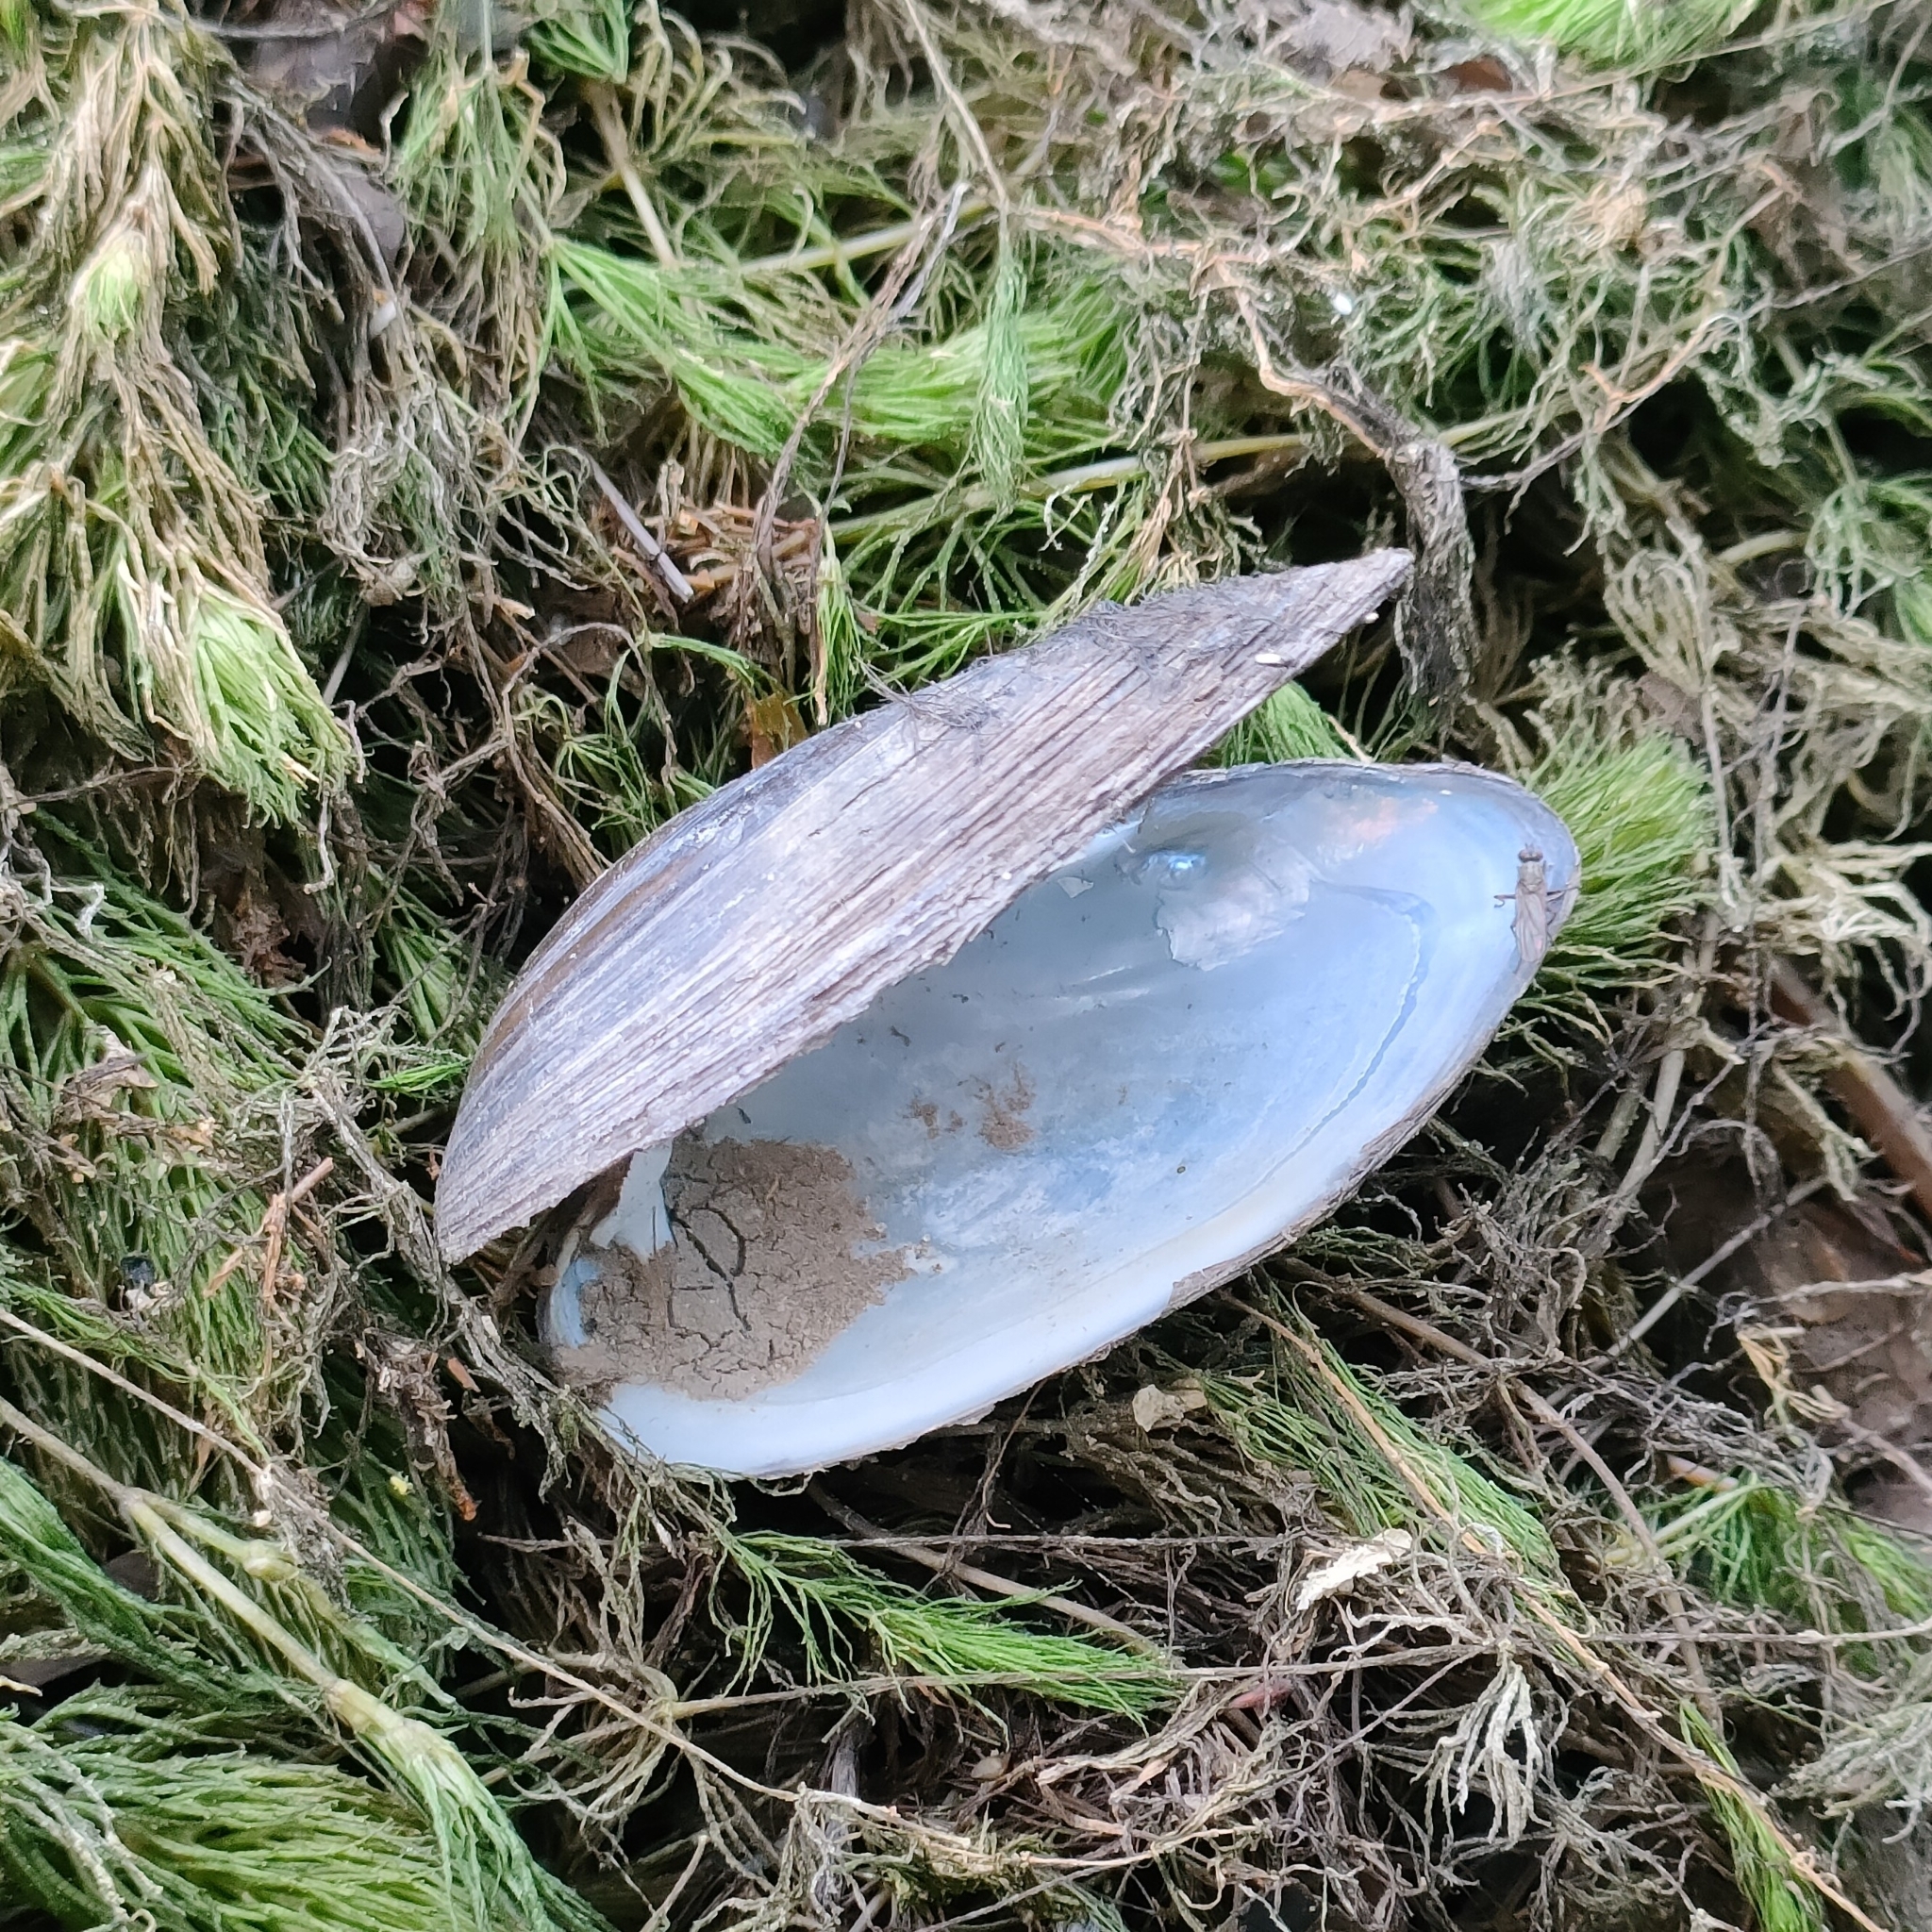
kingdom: Animalia
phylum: Mollusca
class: Bivalvia
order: Unionida
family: Unionidae
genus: Unio
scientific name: Unio tumidus
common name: Swollen river mussel
